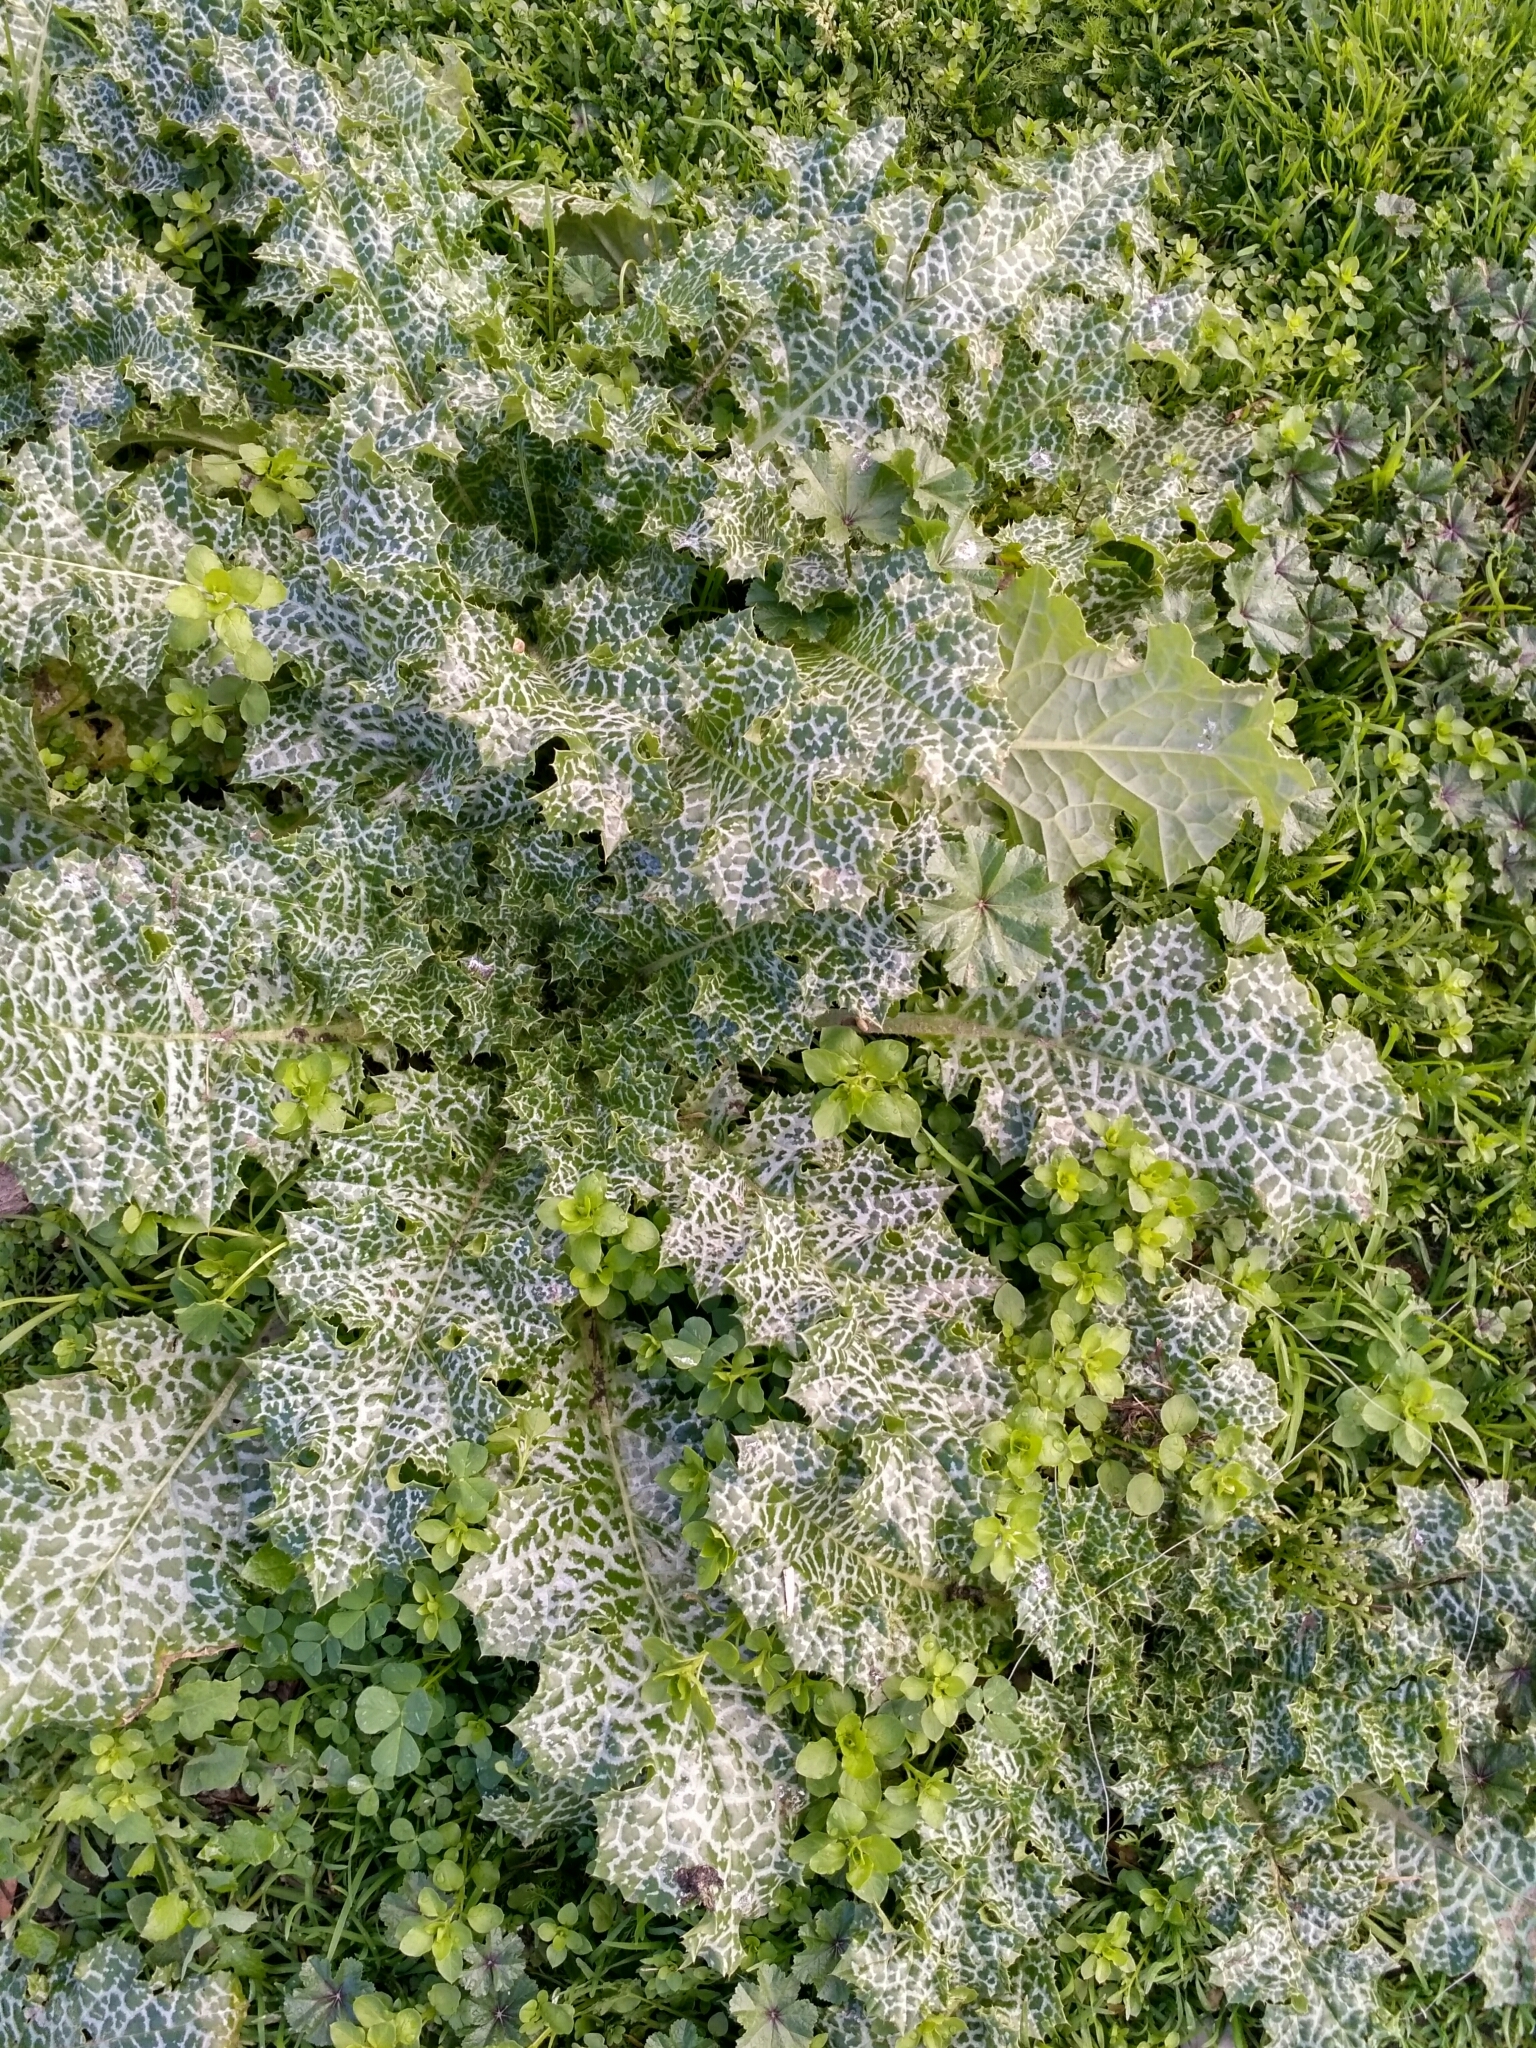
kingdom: Plantae
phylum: Tracheophyta
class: Magnoliopsida
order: Asterales
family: Asteraceae
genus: Silybum
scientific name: Silybum marianum
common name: Milk thistle
